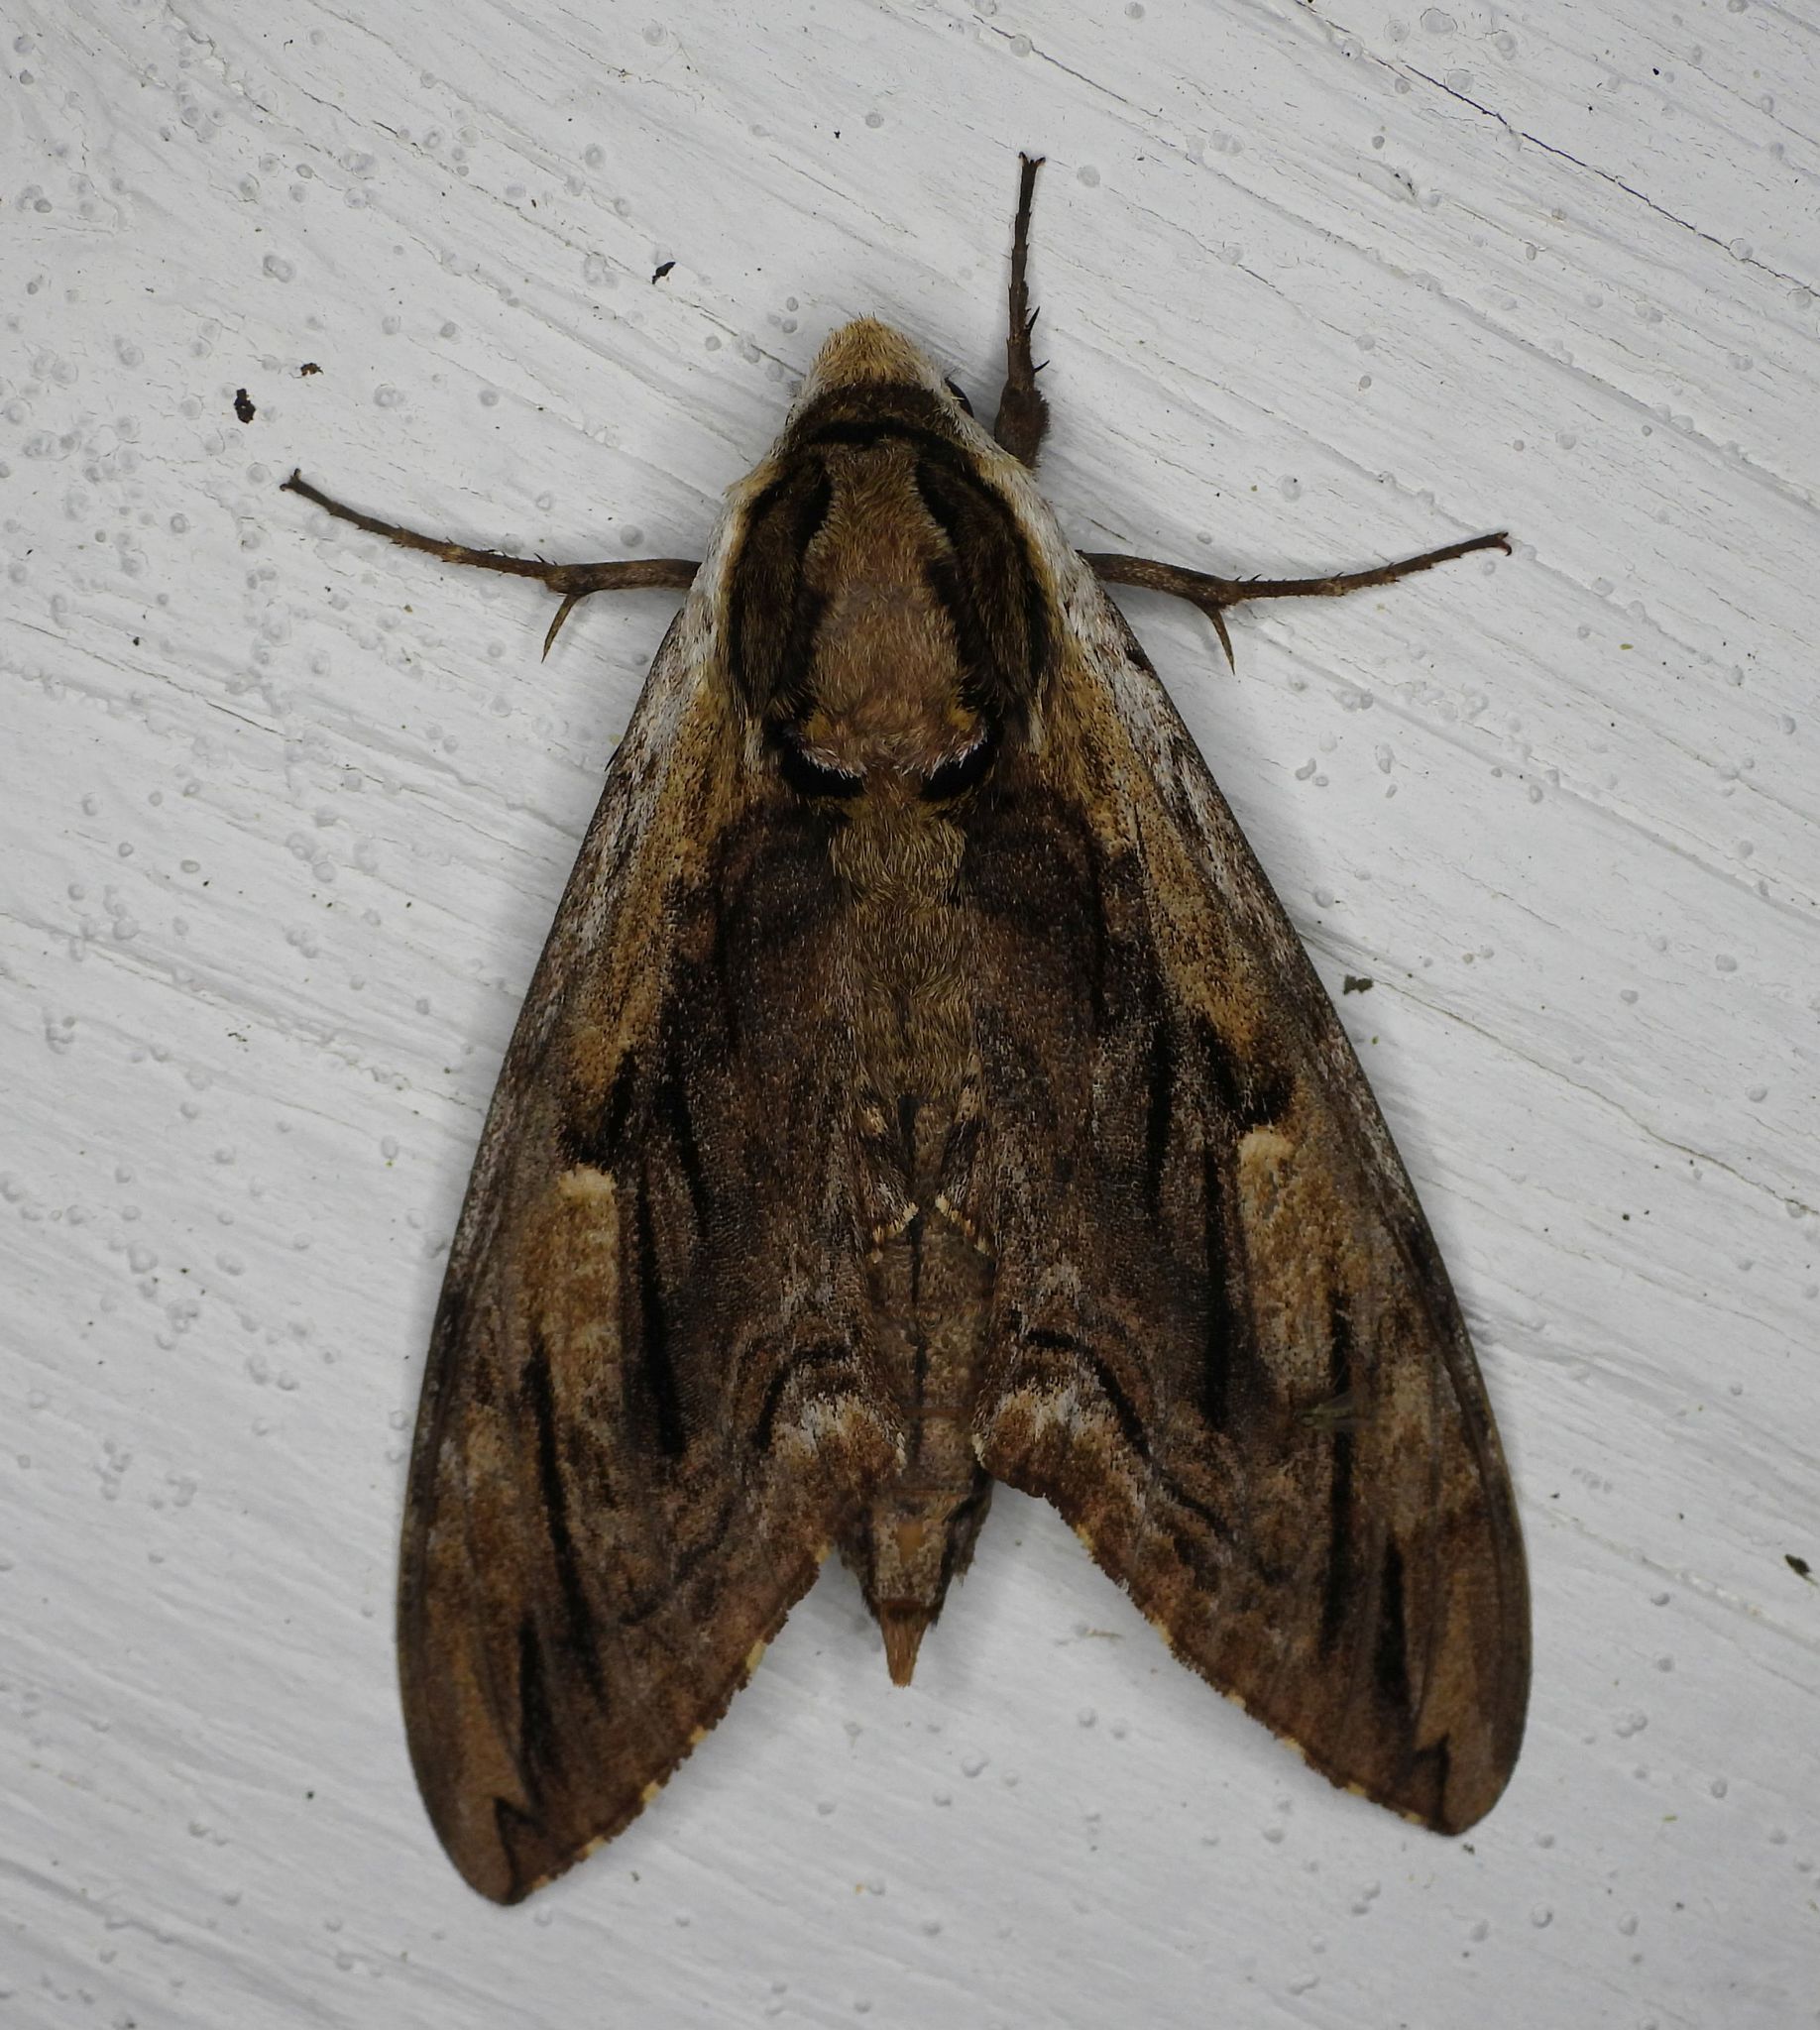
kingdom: Animalia
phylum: Arthropoda
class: Insecta
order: Lepidoptera
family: Sphingidae
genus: Ceratomia
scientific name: Ceratomia amyntor
